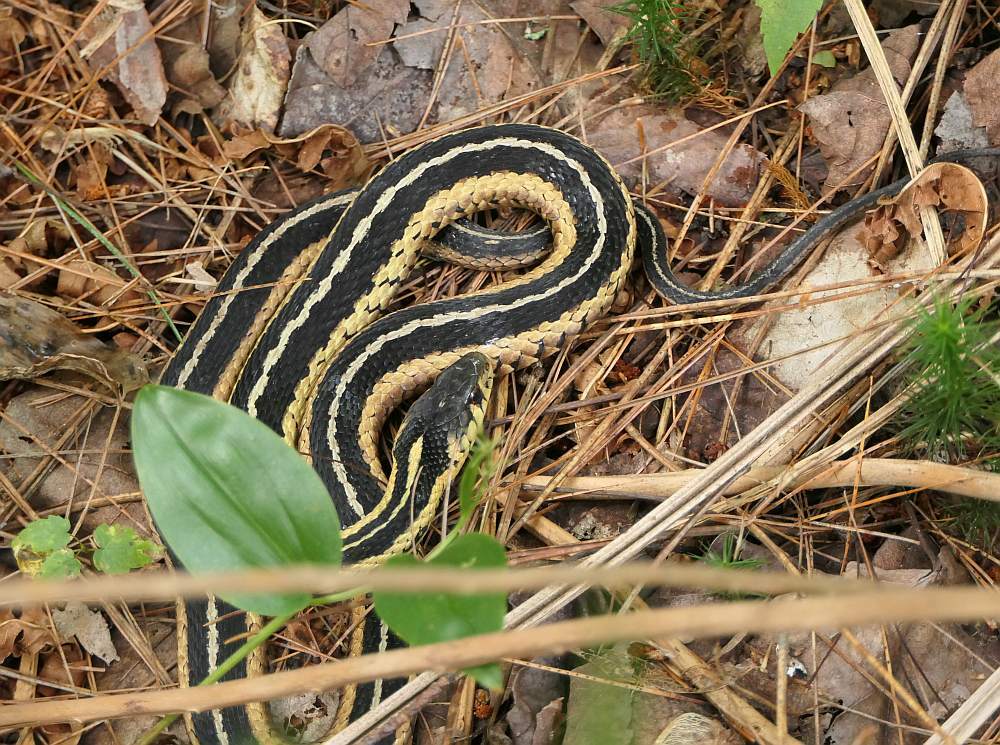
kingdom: Animalia
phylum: Chordata
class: Squamata
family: Colubridae
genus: Thamnophis
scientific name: Thamnophis sirtalis
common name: Common garter snake
